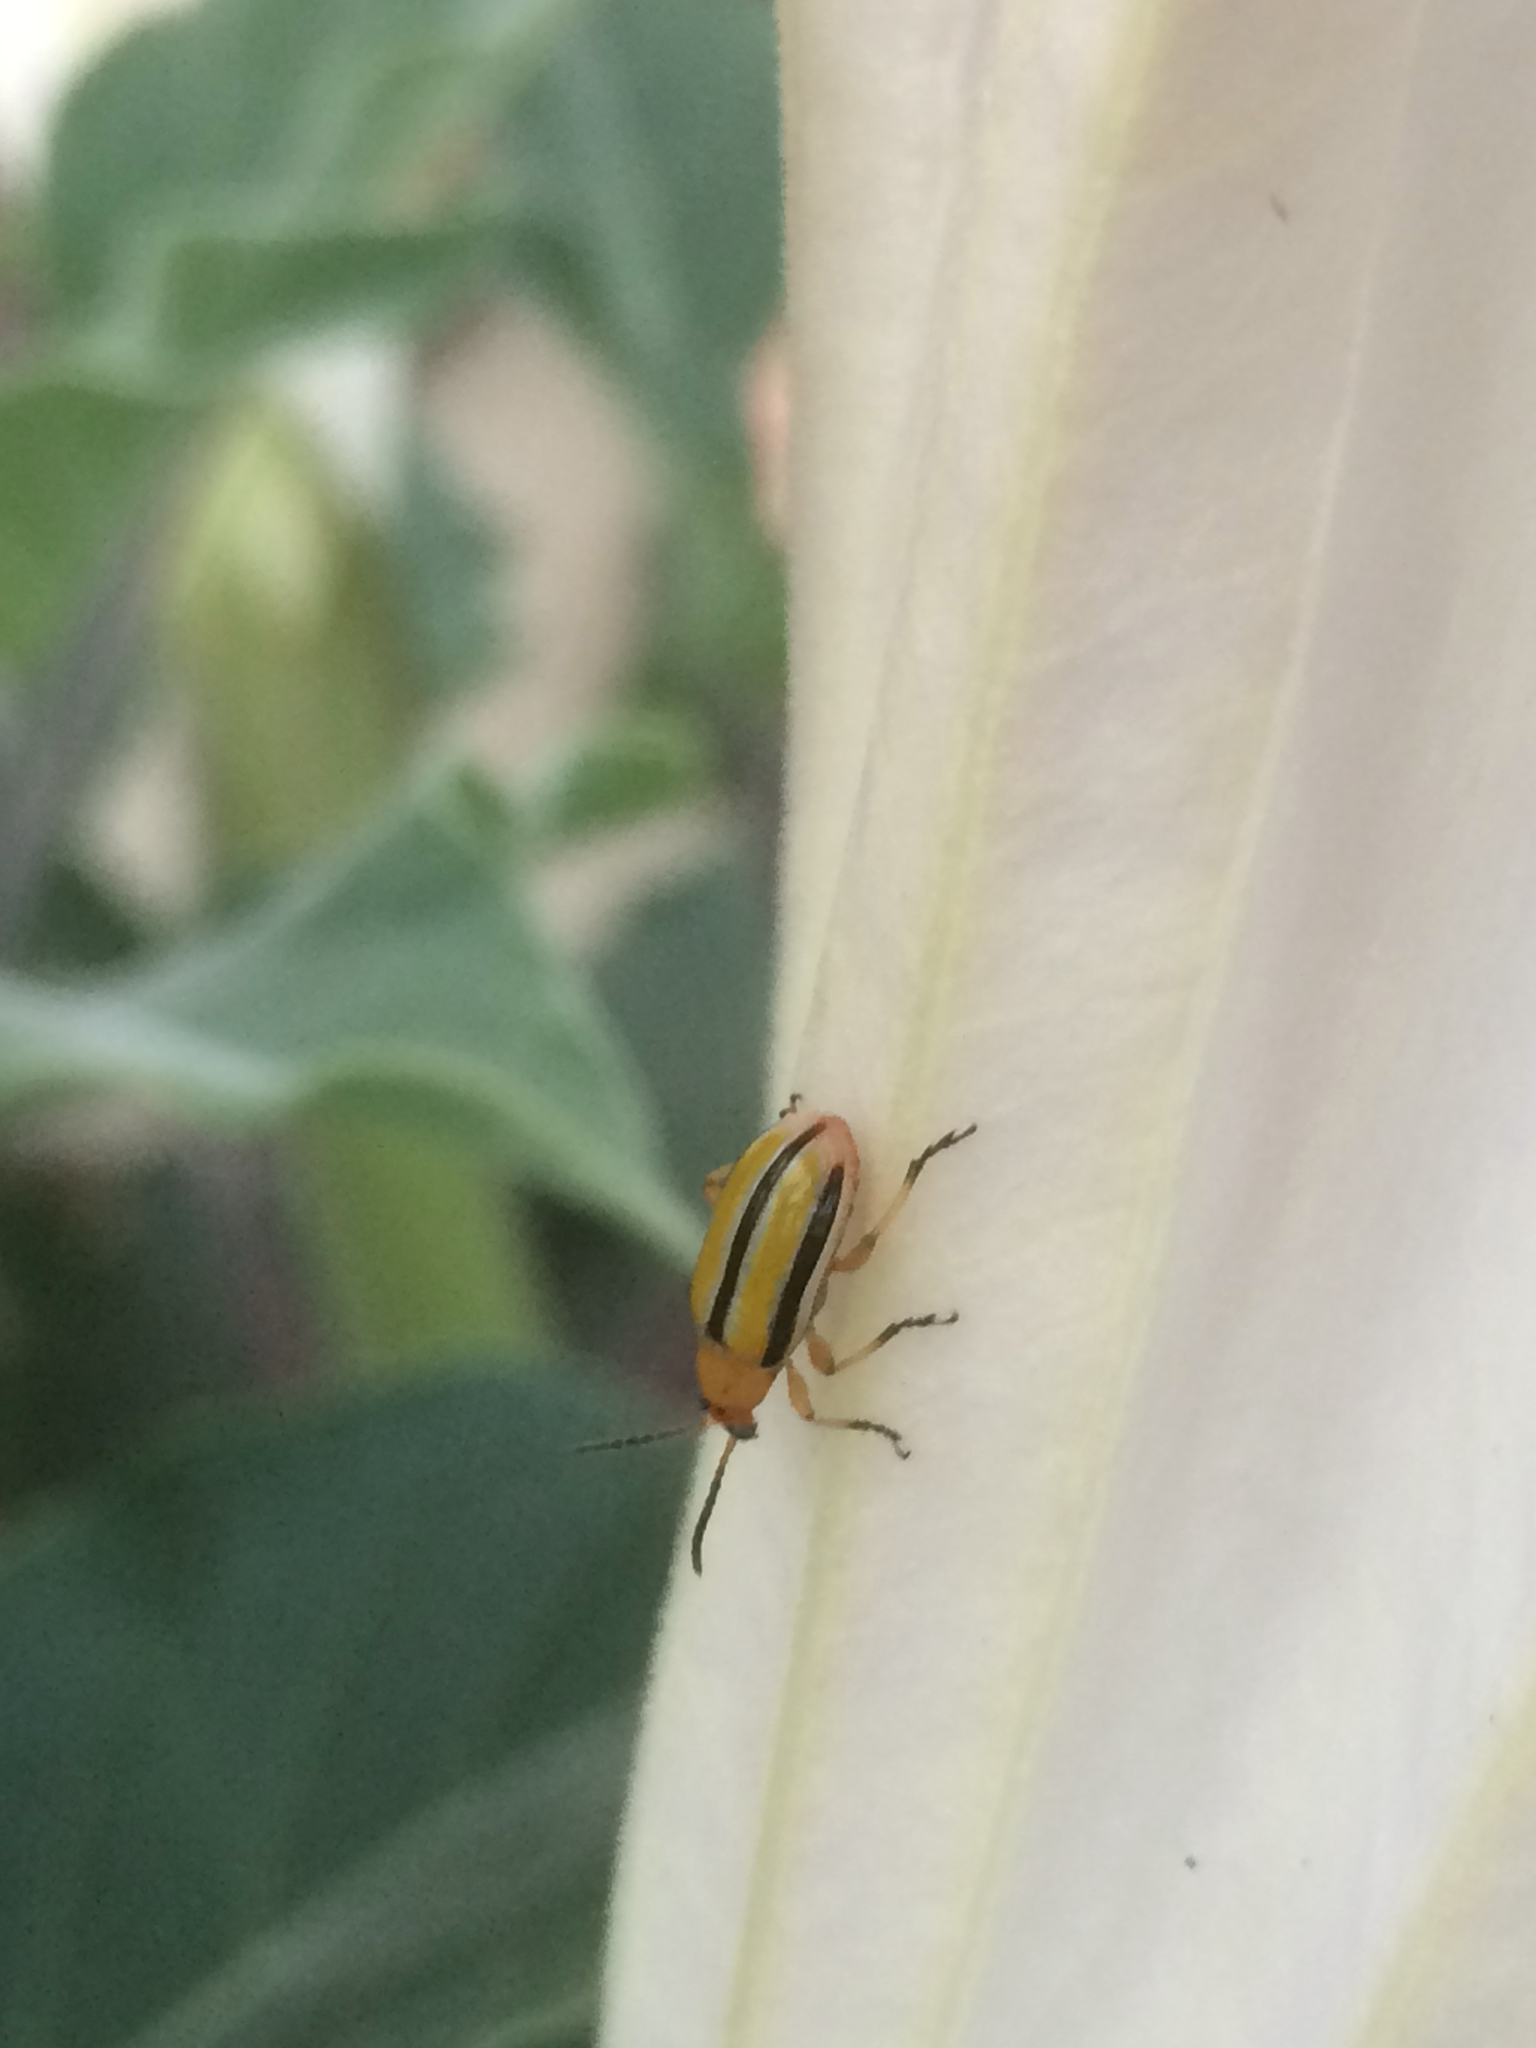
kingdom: Animalia
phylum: Arthropoda
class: Insecta
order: Coleoptera
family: Chrysomelidae
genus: Lema
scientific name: Lema daturaphila
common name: Leaf beetle
